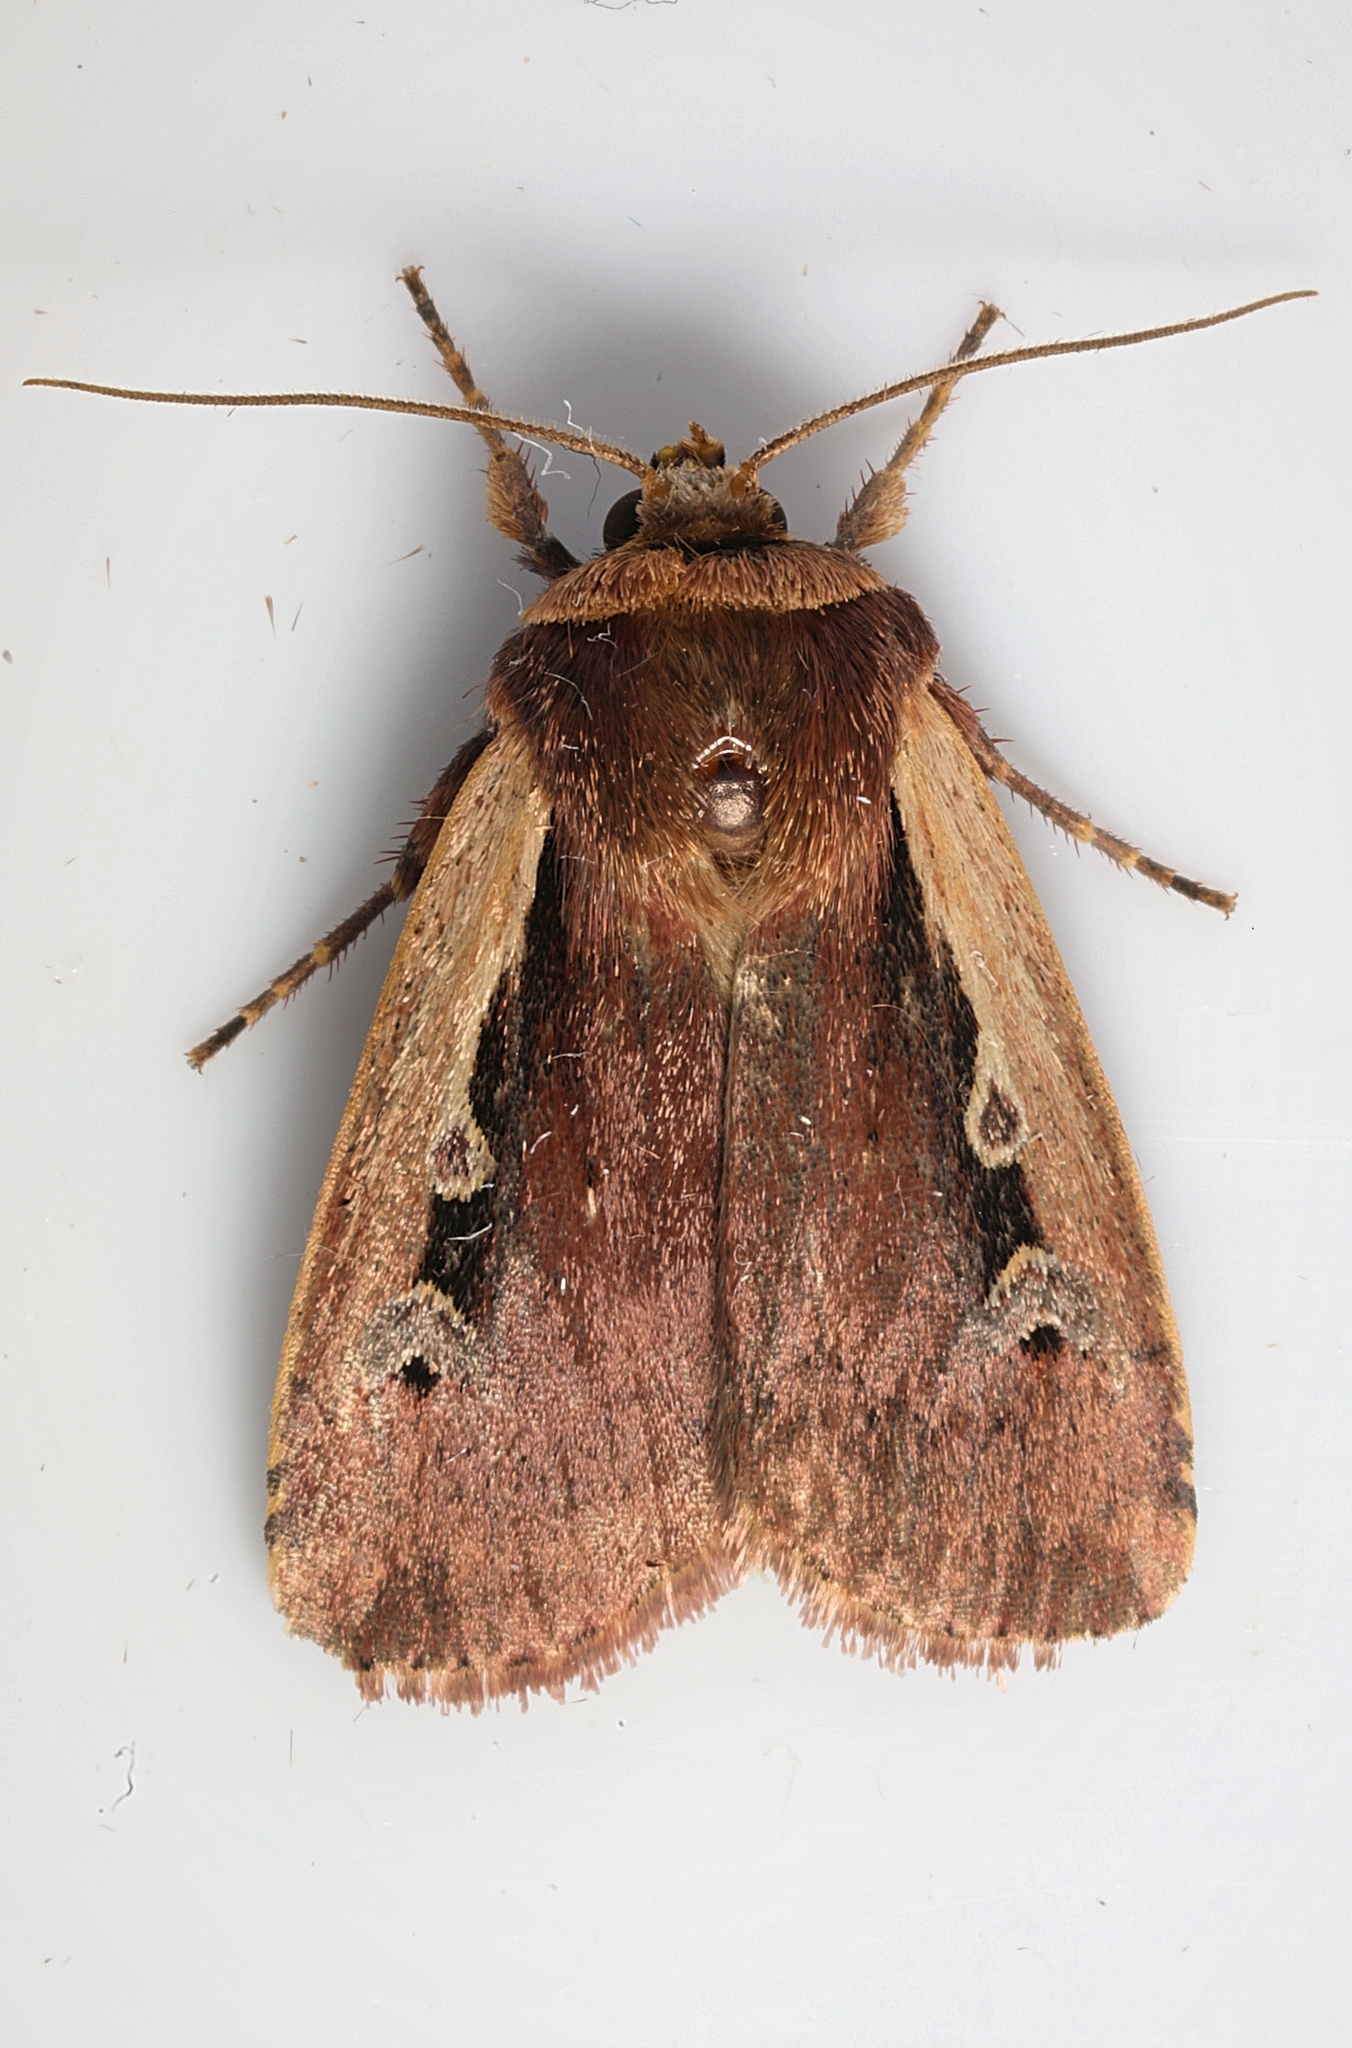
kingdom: Animalia
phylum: Arthropoda
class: Insecta
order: Lepidoptera
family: Noctuidae
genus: Ochropleura
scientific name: Ochropleura plecta
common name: Flame shoulder
